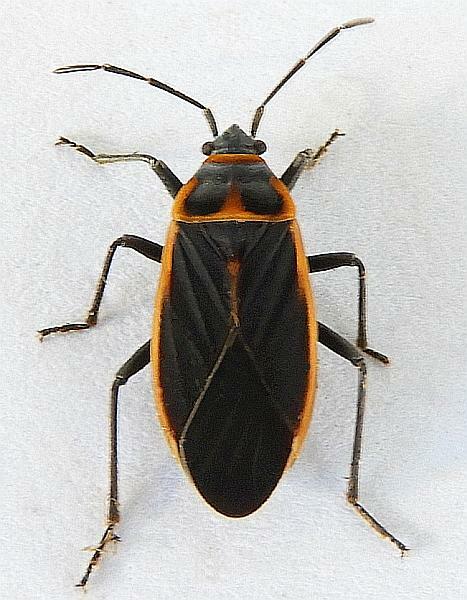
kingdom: Animalia
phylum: Arthropoda
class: Insecta
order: Hemiptera
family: Lygaeidae
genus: Melacoryphus
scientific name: Melacoryphus facetus
